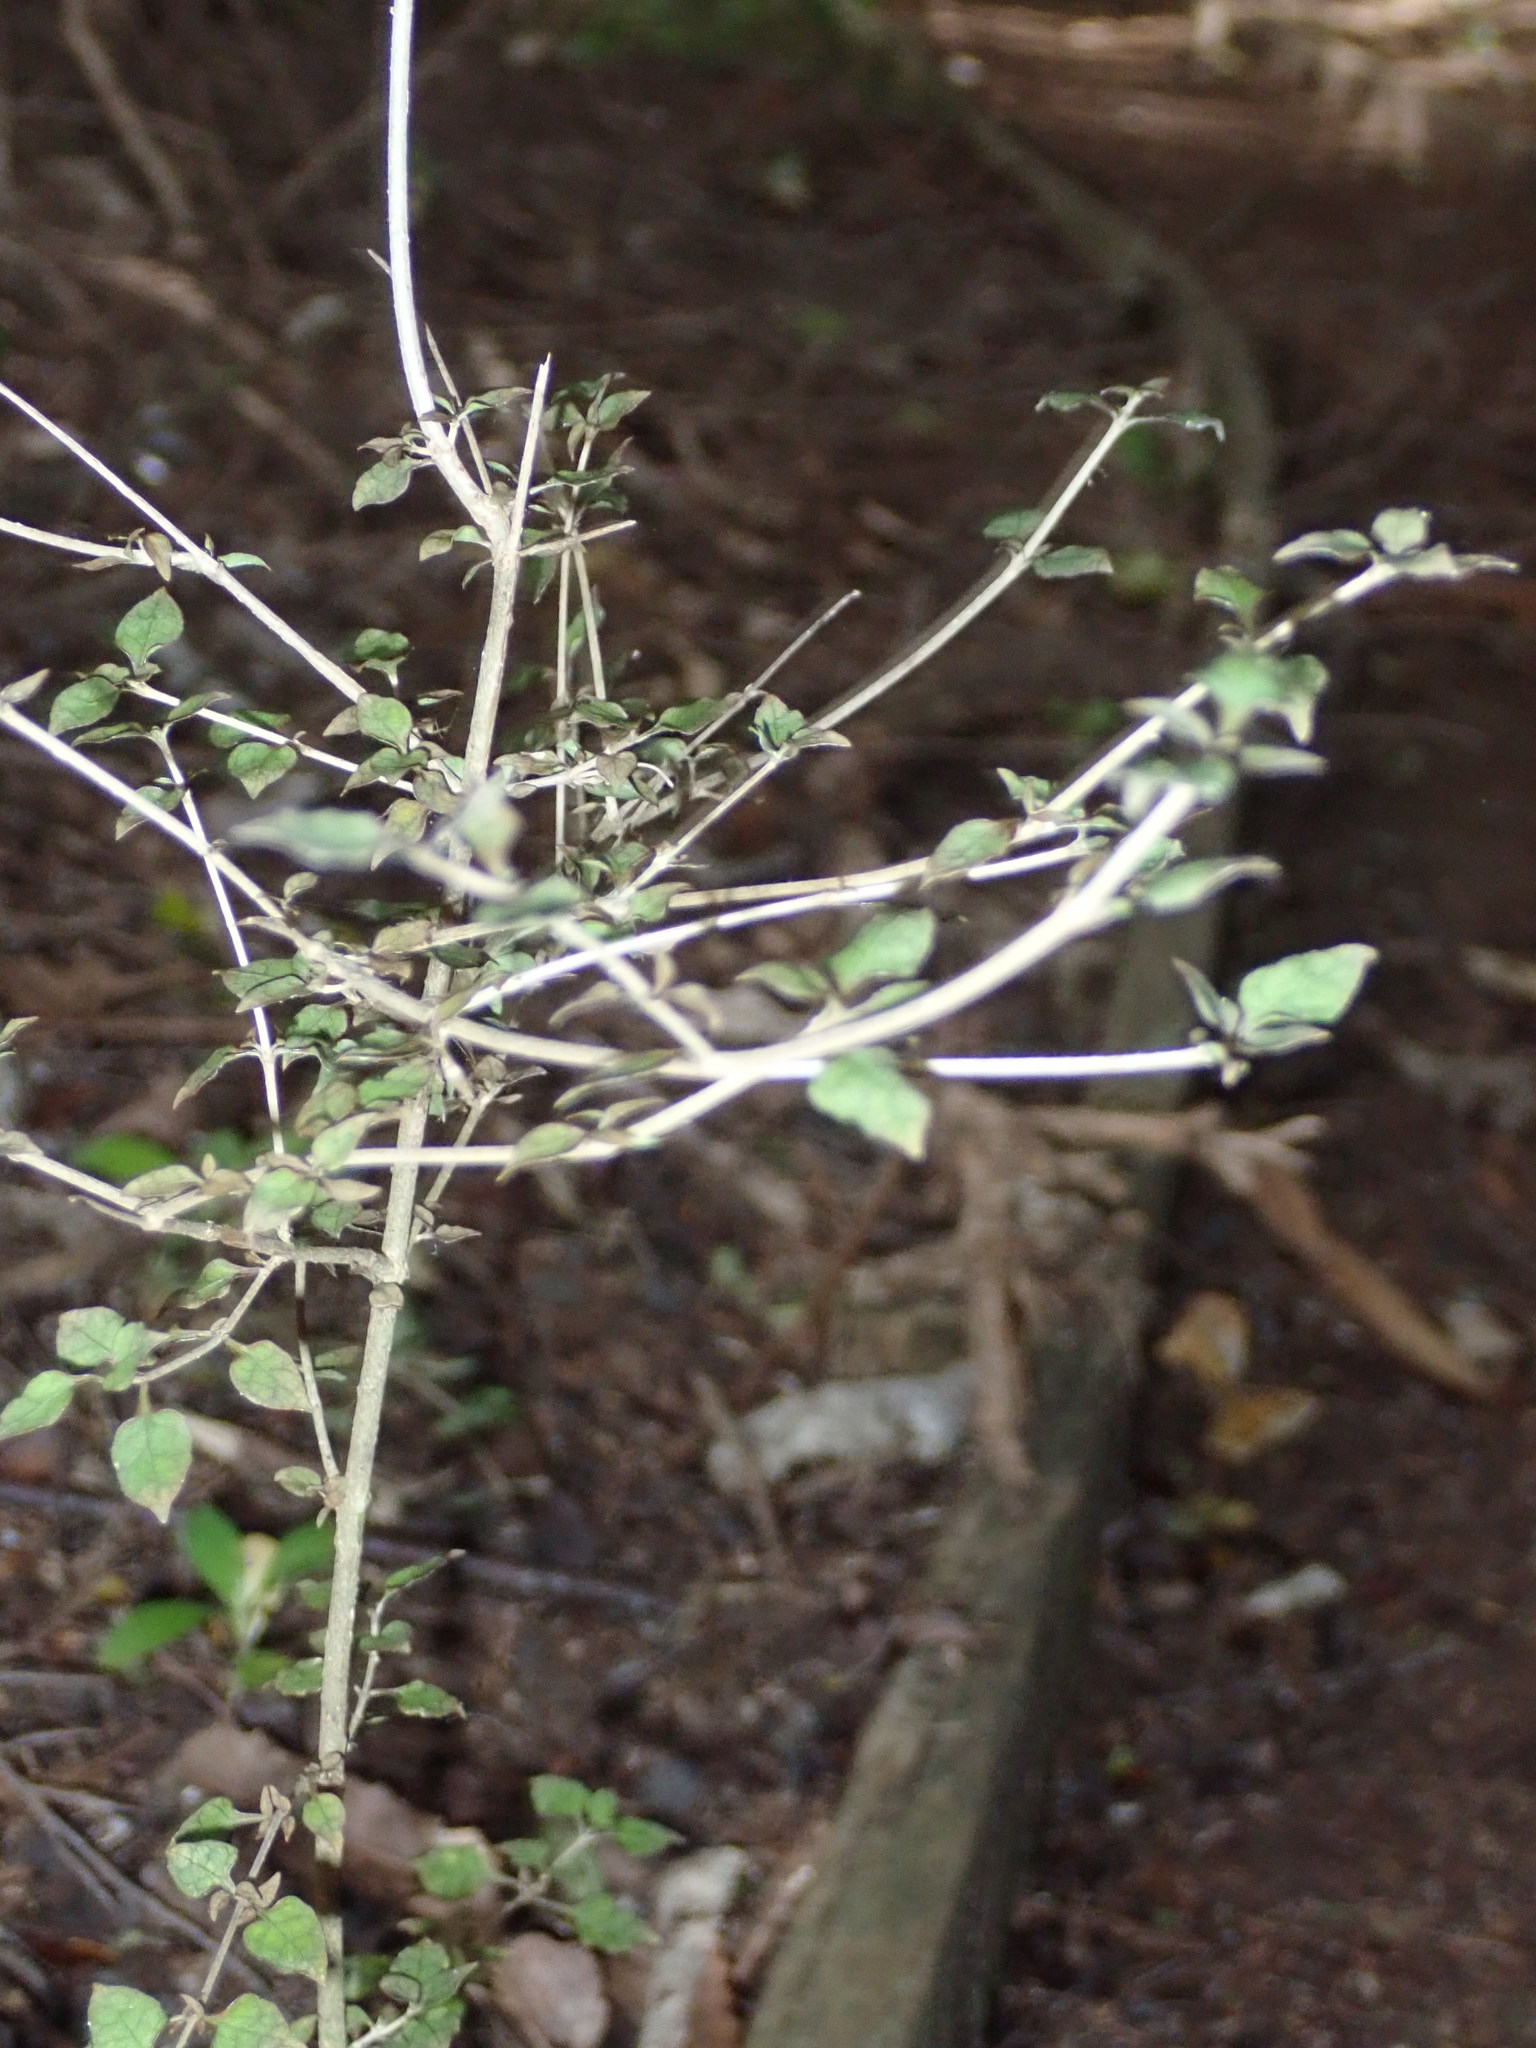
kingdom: Plantae
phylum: Tracheophyta
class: Magnoliopsida
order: Gentianales
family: Rubiaceae
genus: Coprosma
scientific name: Coprosma areolata
